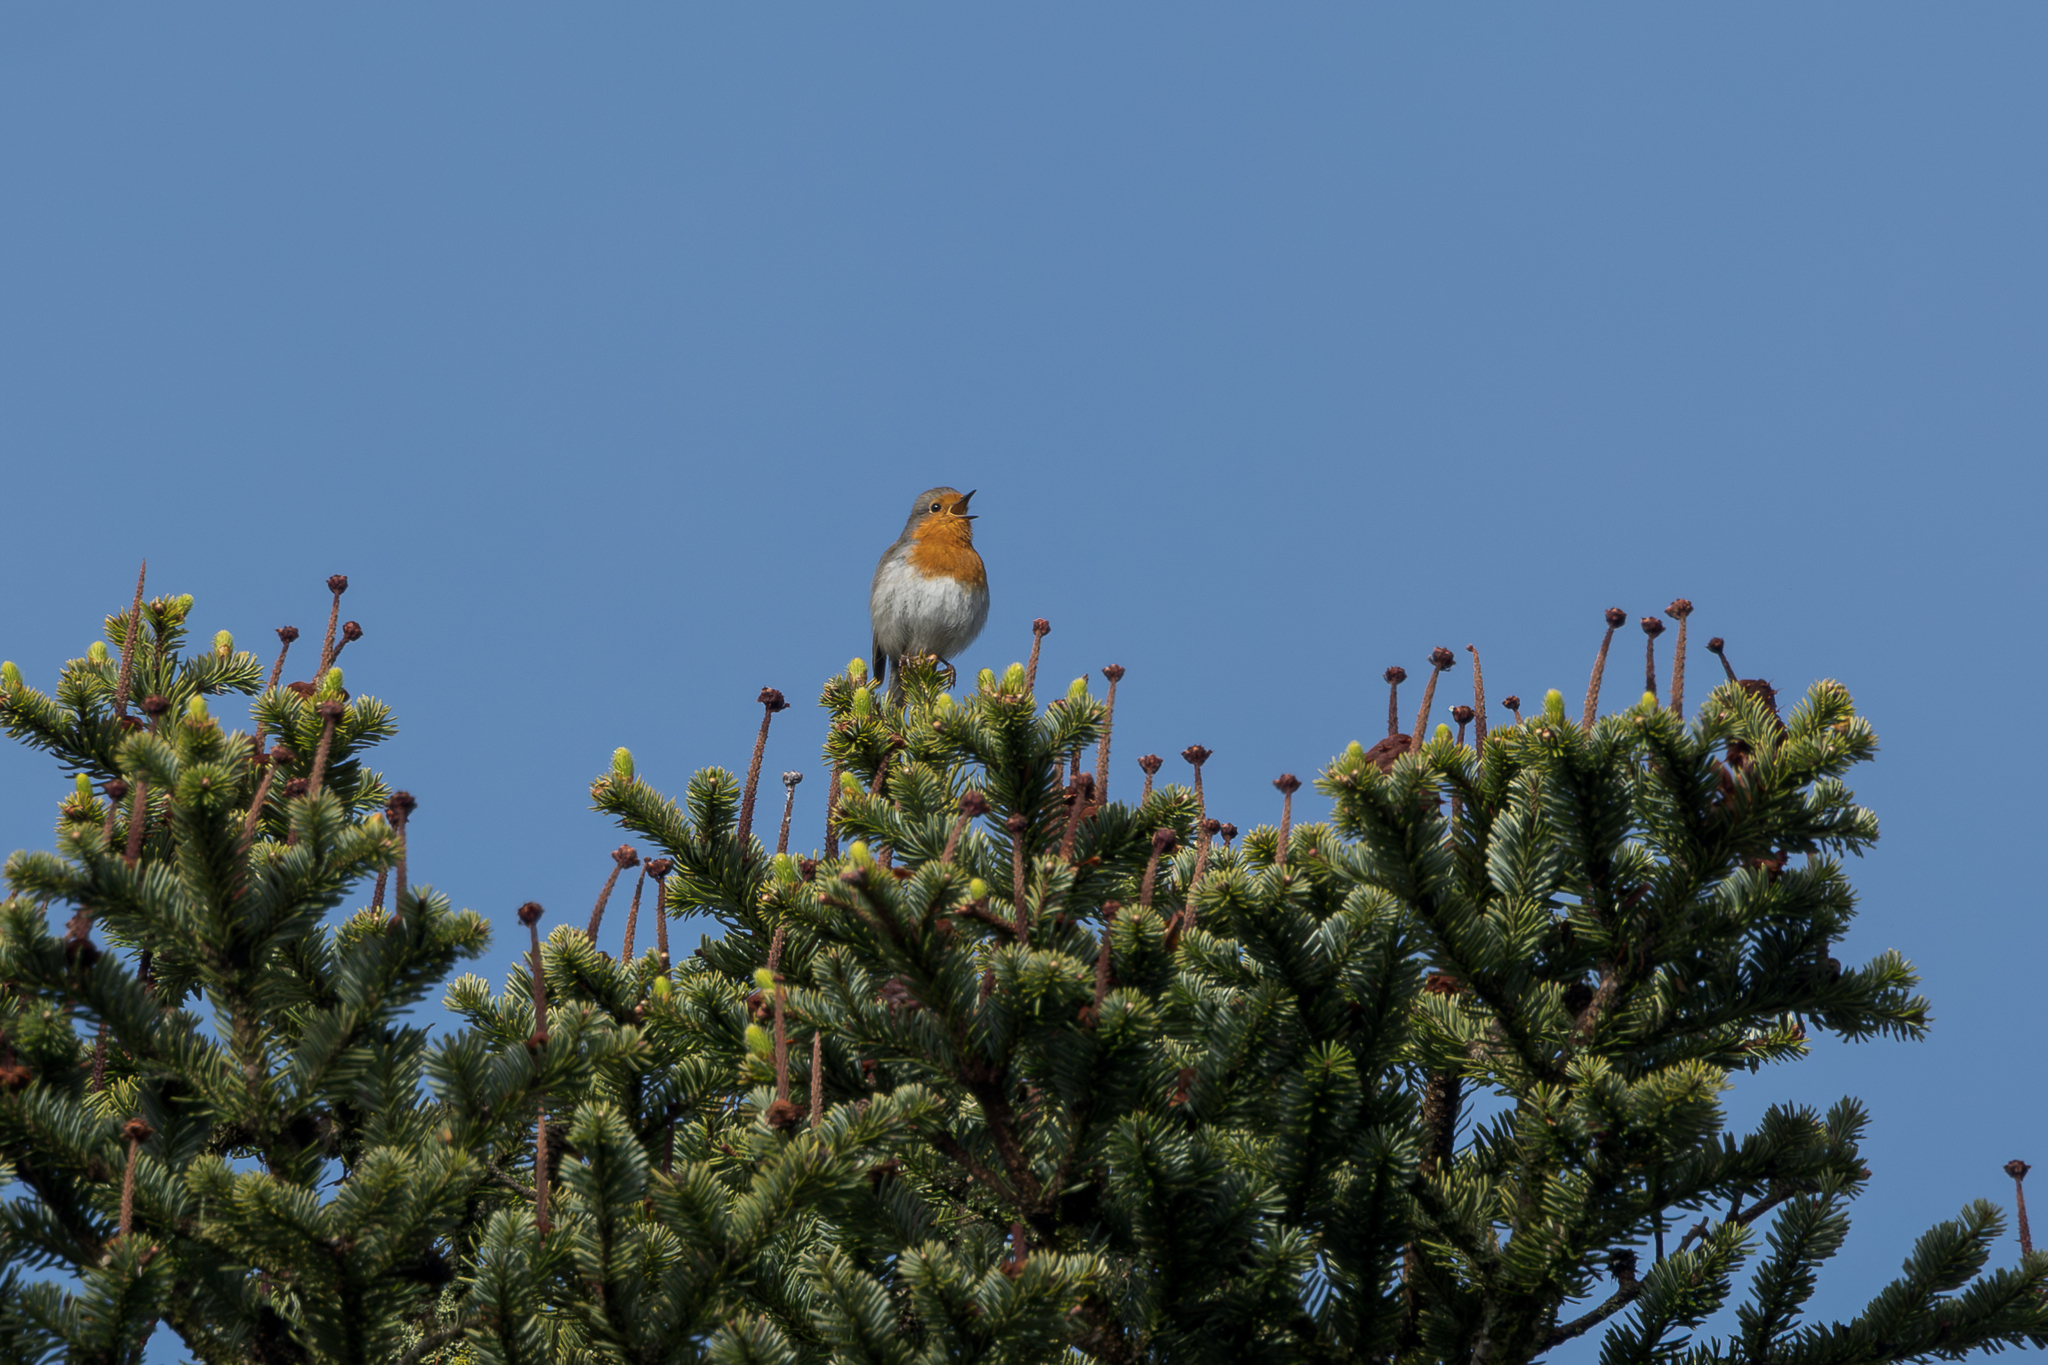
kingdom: Animalia
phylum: Chordata
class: Aves
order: Passeriformes
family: Muscicapidae
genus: Erithacus
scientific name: Erithacus rubecula
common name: European robin
